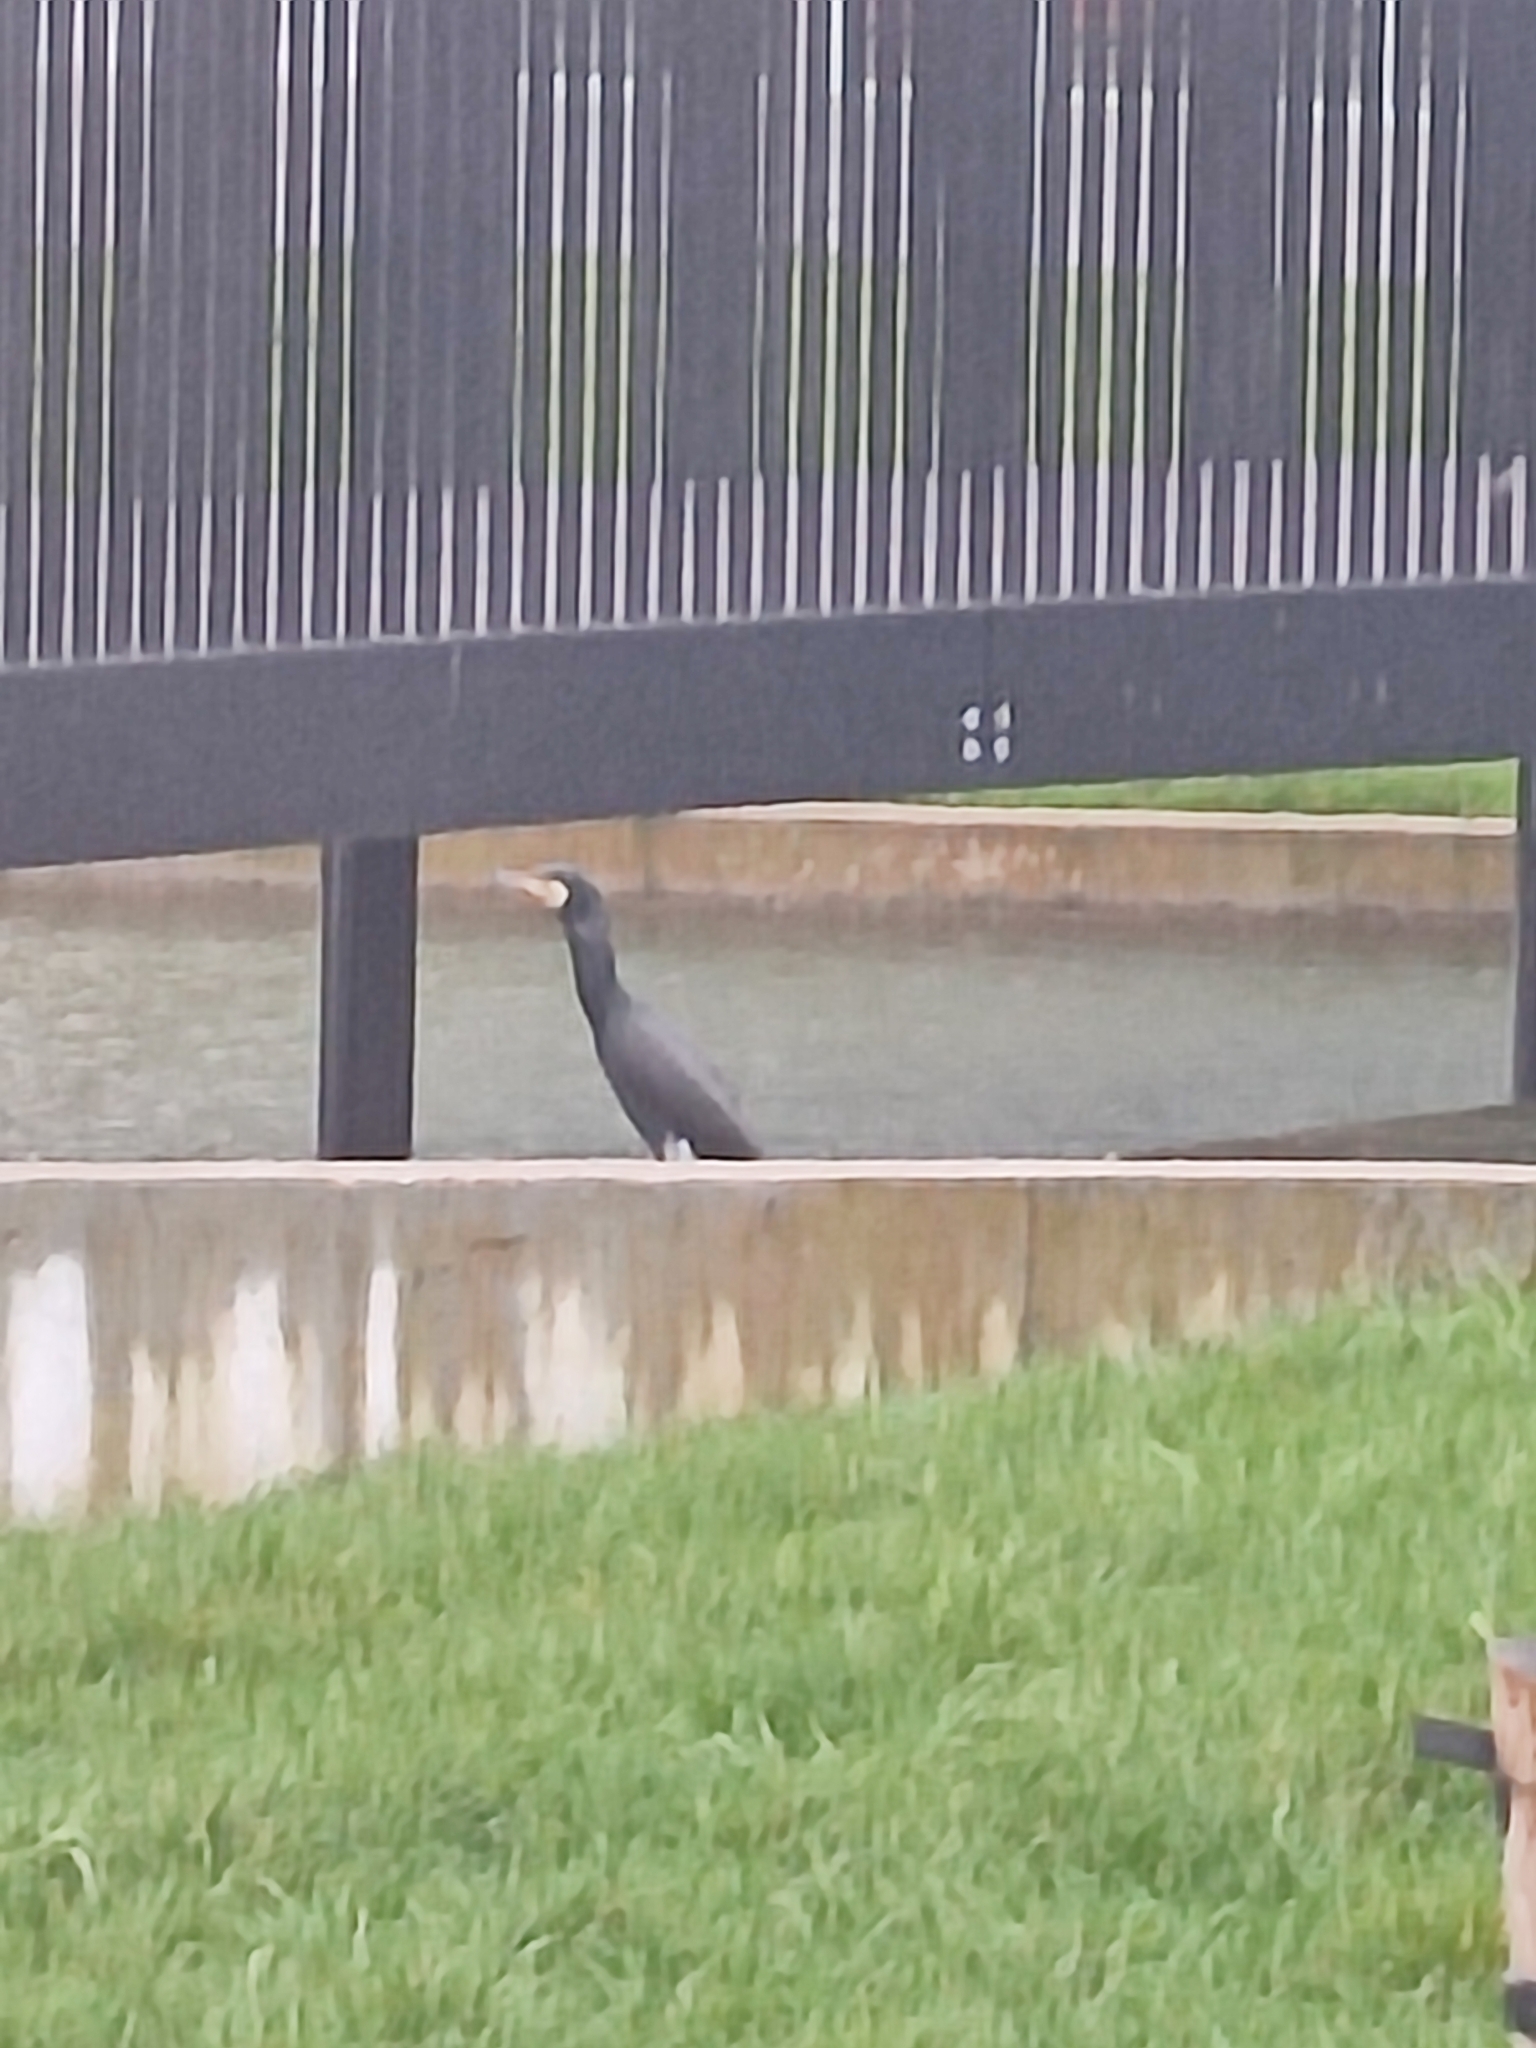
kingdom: Animalia
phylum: Chordata
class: Aves
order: Suliformes
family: Phalacrocoracidae
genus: Phalacrocorax
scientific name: Phalacrocorax carbo
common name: Great cormorant
